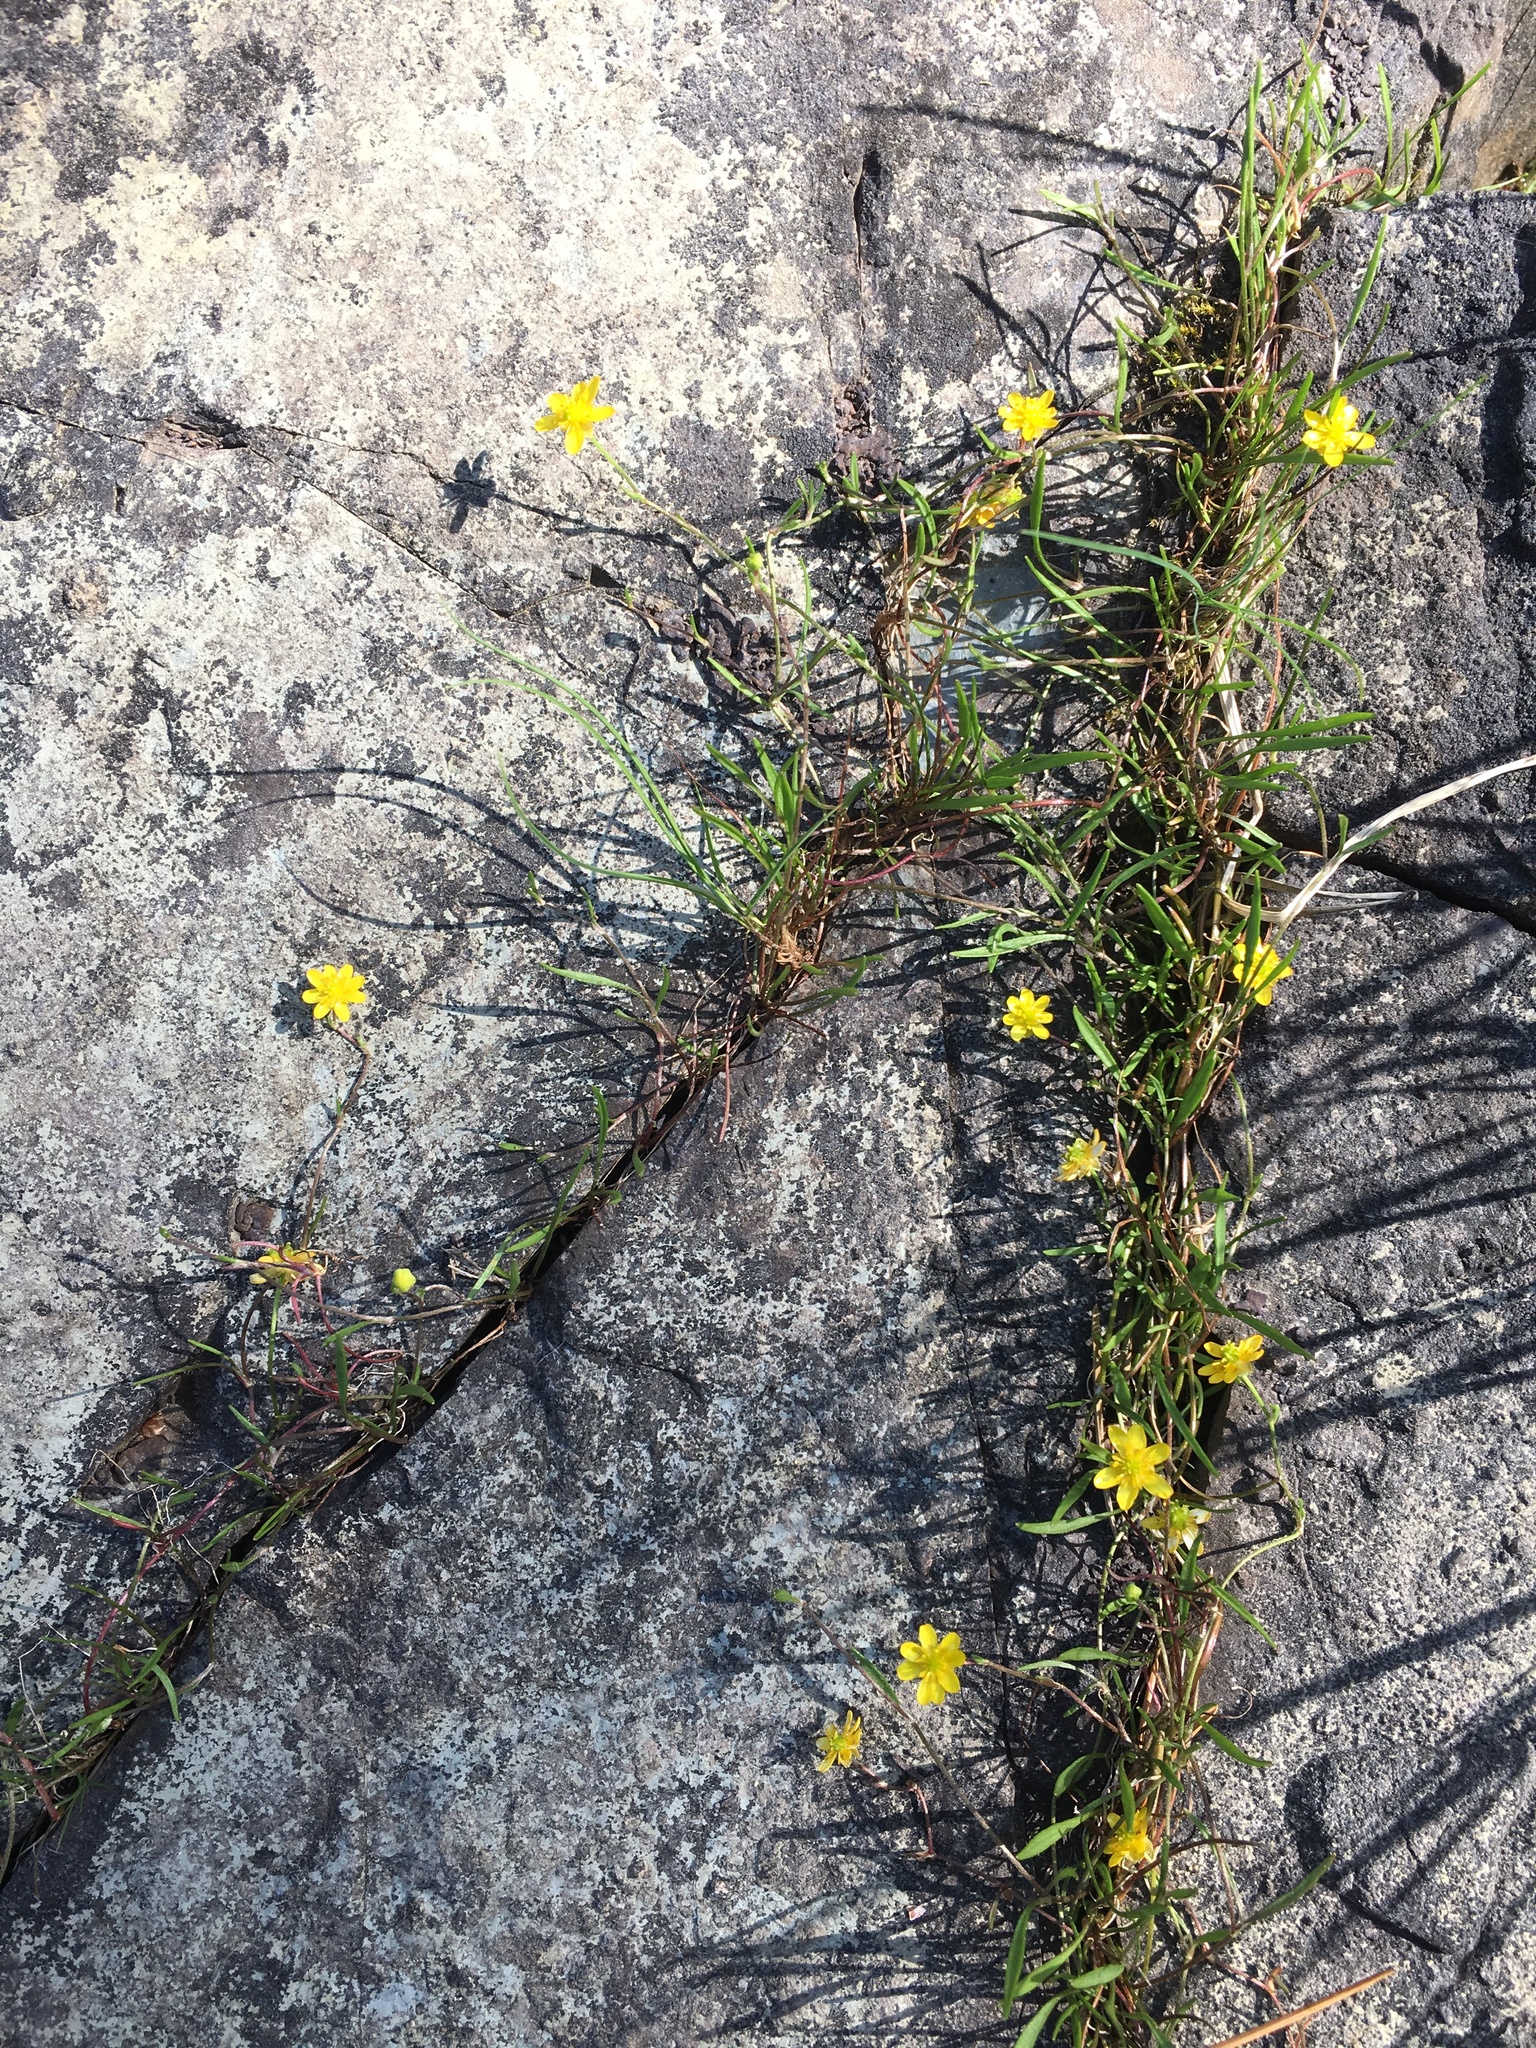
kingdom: Plantae
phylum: Tracheophyta
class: Magnoliopsida
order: Ranunculales
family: Ranunculaceae
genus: Ranunculus
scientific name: Ranunculus flammula
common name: Lesser spearwort
